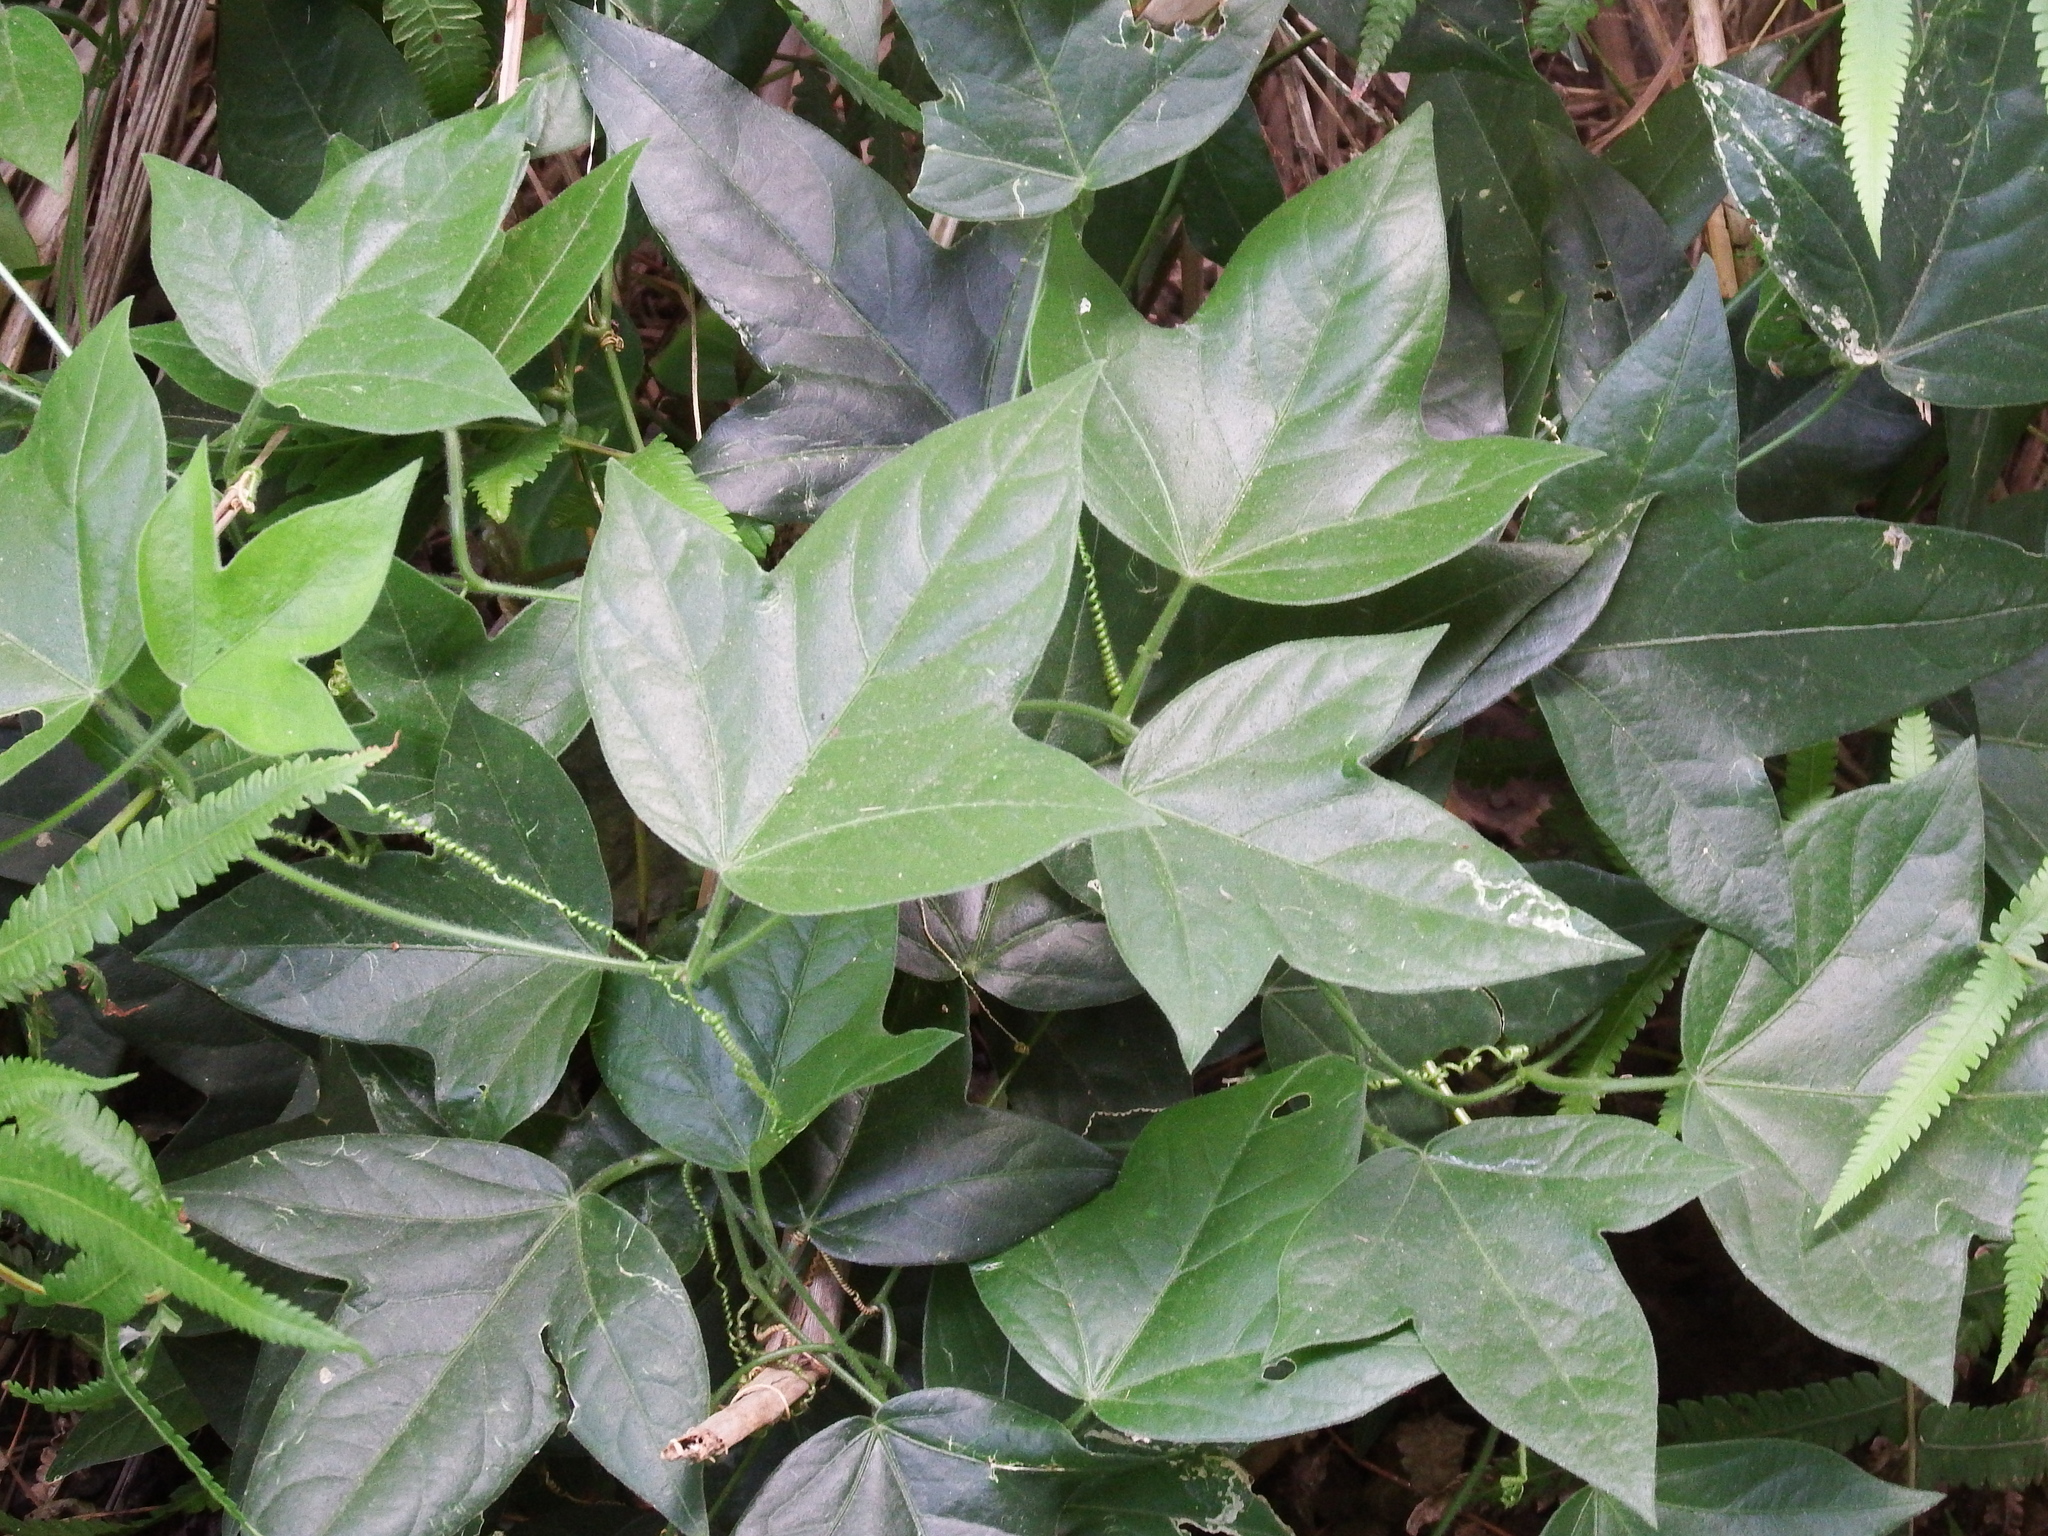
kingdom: Plantae
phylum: Tracheophyta
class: Magnoliopsida
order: Malpighiales
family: Passifloraceae
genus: Passiflora
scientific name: Passiflora suberosa
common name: Wild passionfruit
